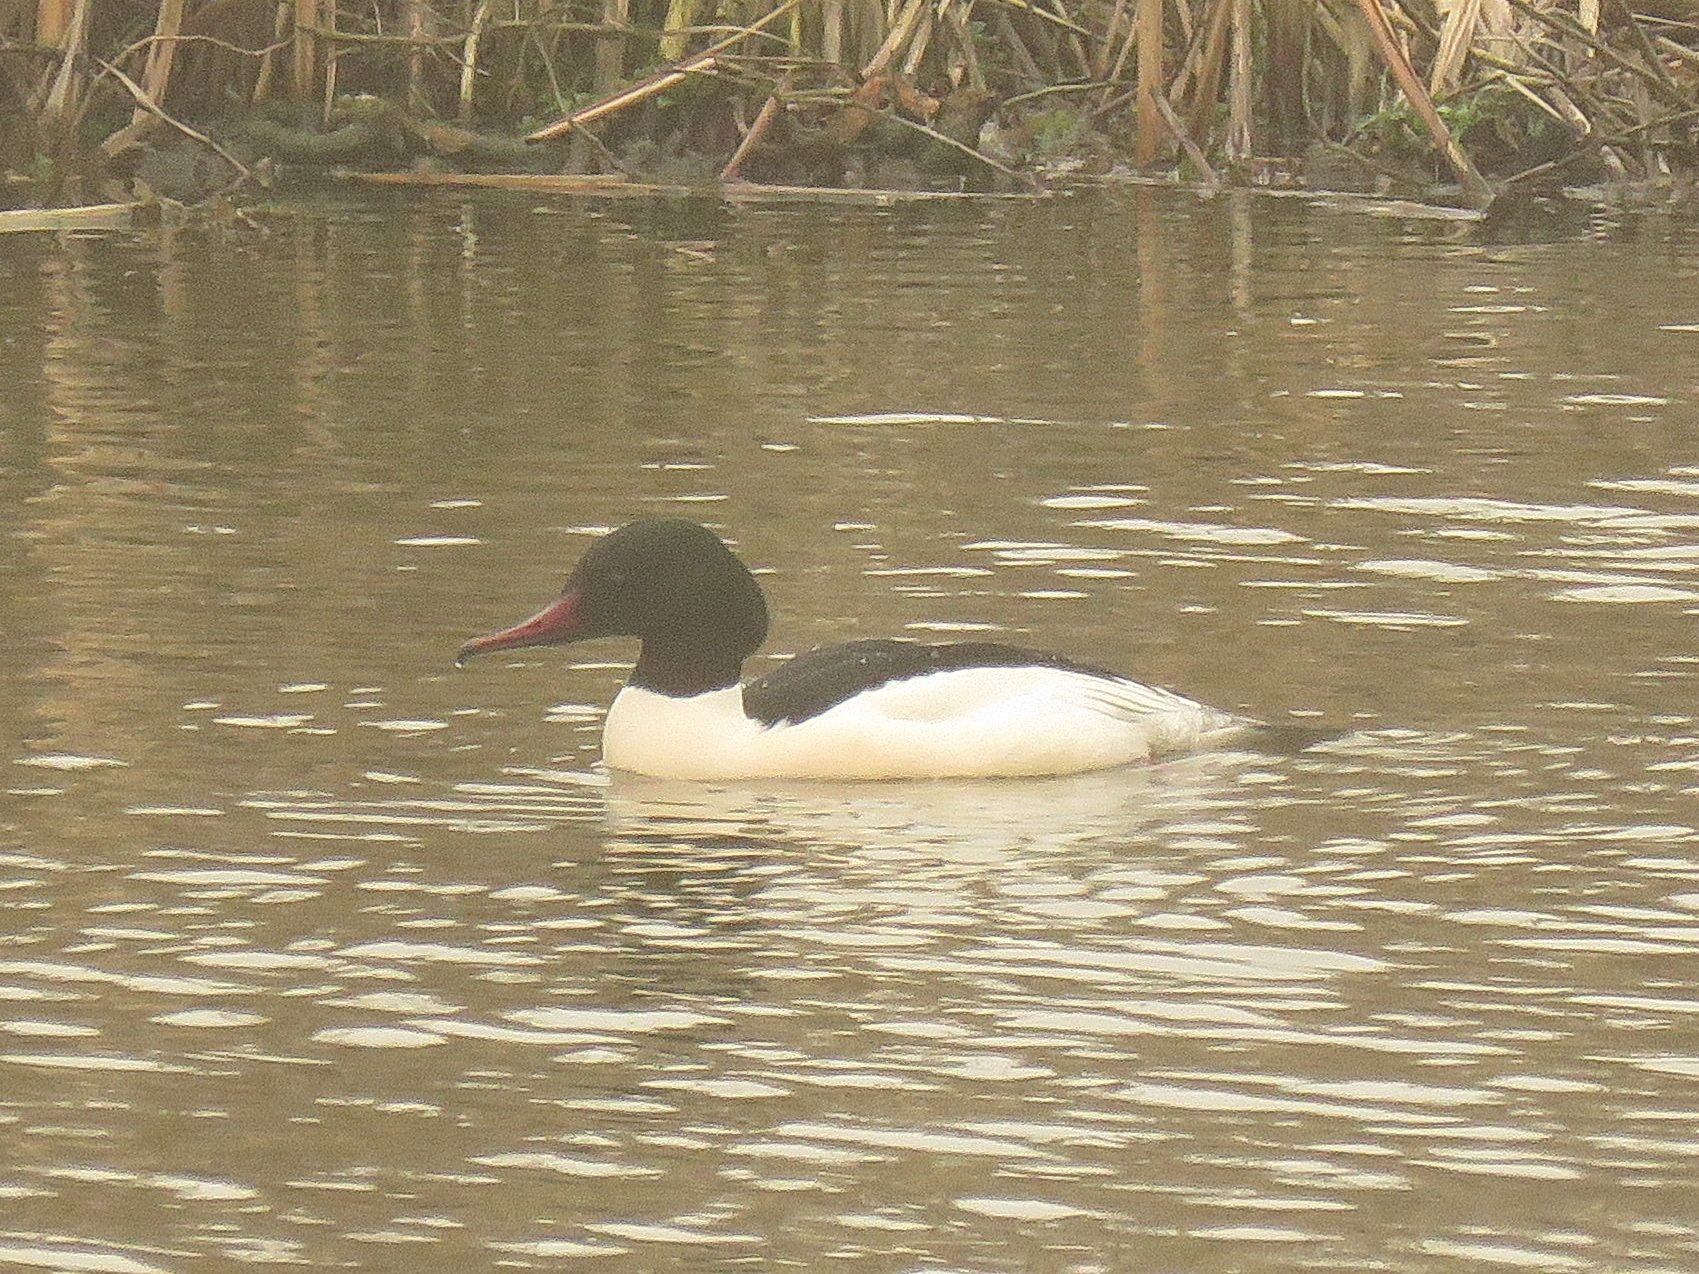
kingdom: Animalia
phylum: Chordata
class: Aves
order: Anseriformes
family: Anatidae
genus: Mergus
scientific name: Mergus merganser
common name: Common merganser
